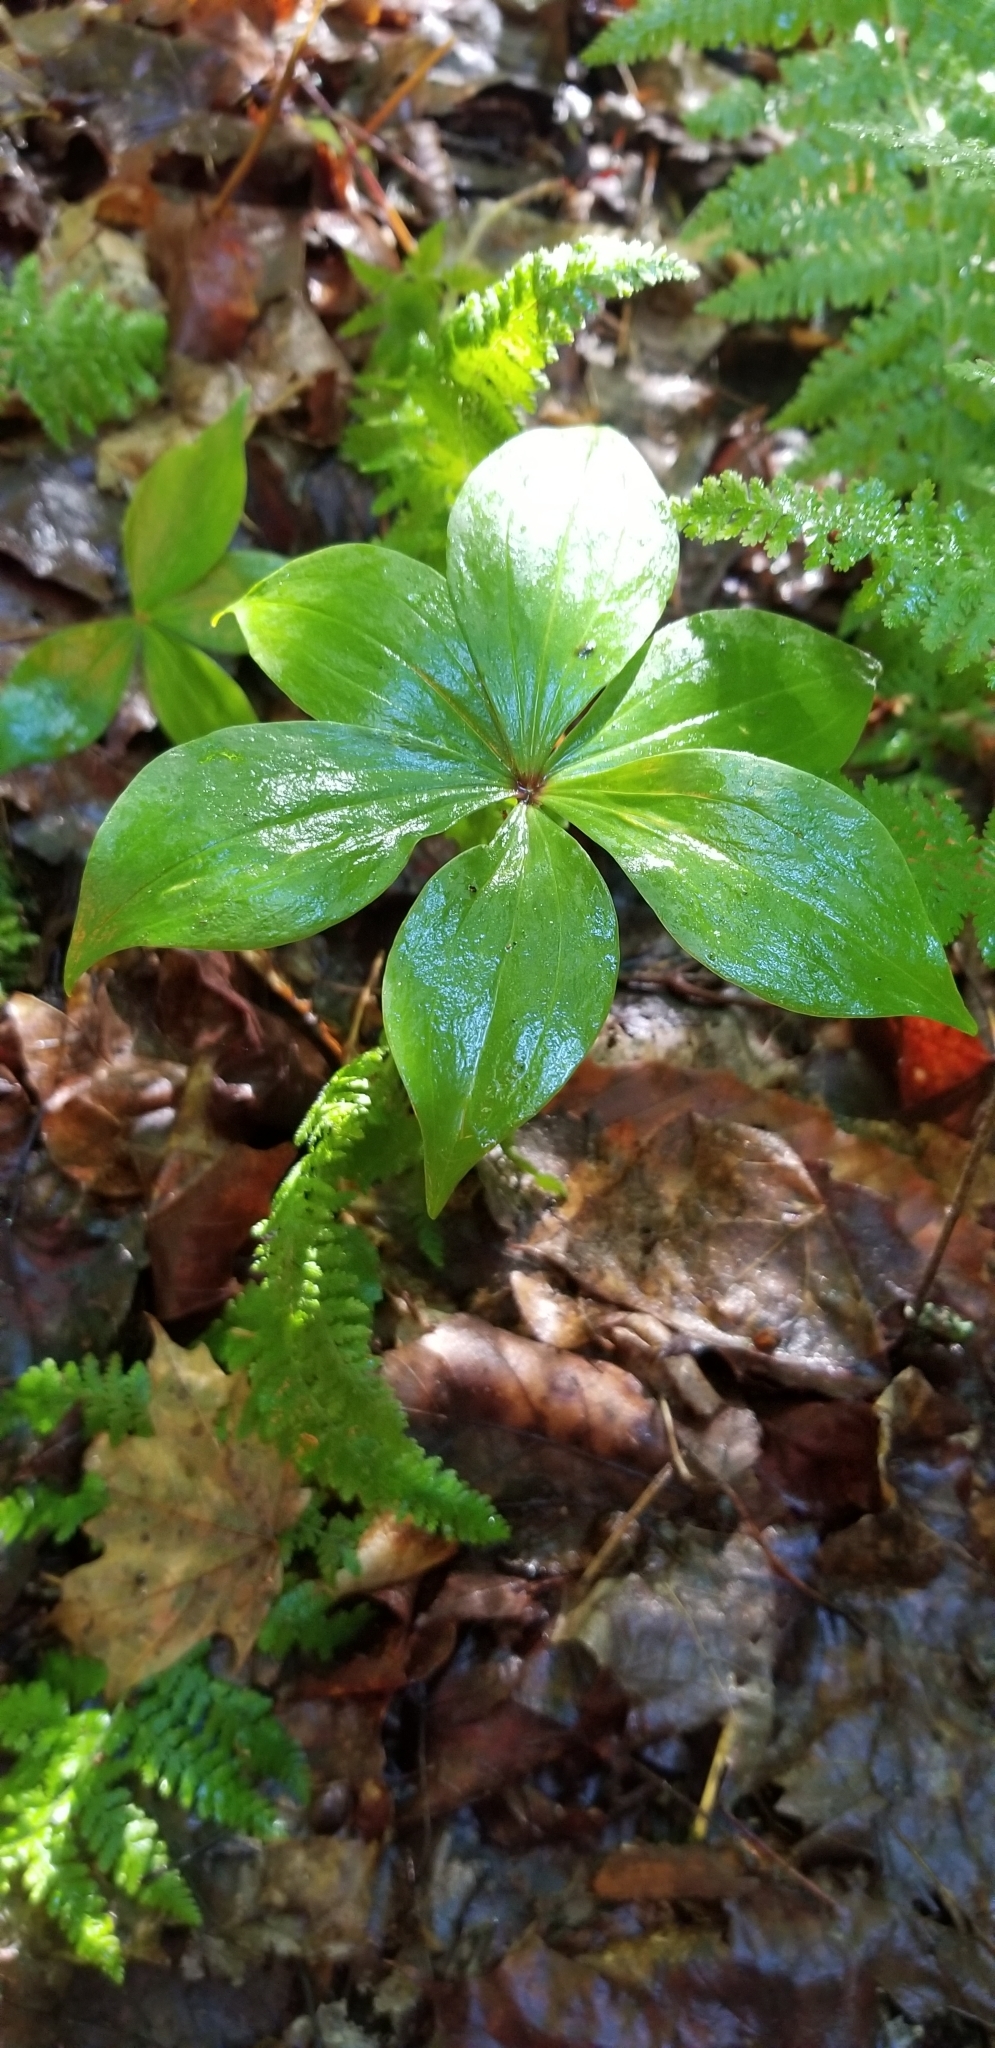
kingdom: Plantae
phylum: Tracheophyta
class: Liliopsida
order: Liliales
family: Liliaceae
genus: Medeola
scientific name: Medeola virginiana
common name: Indian cucumber-root
